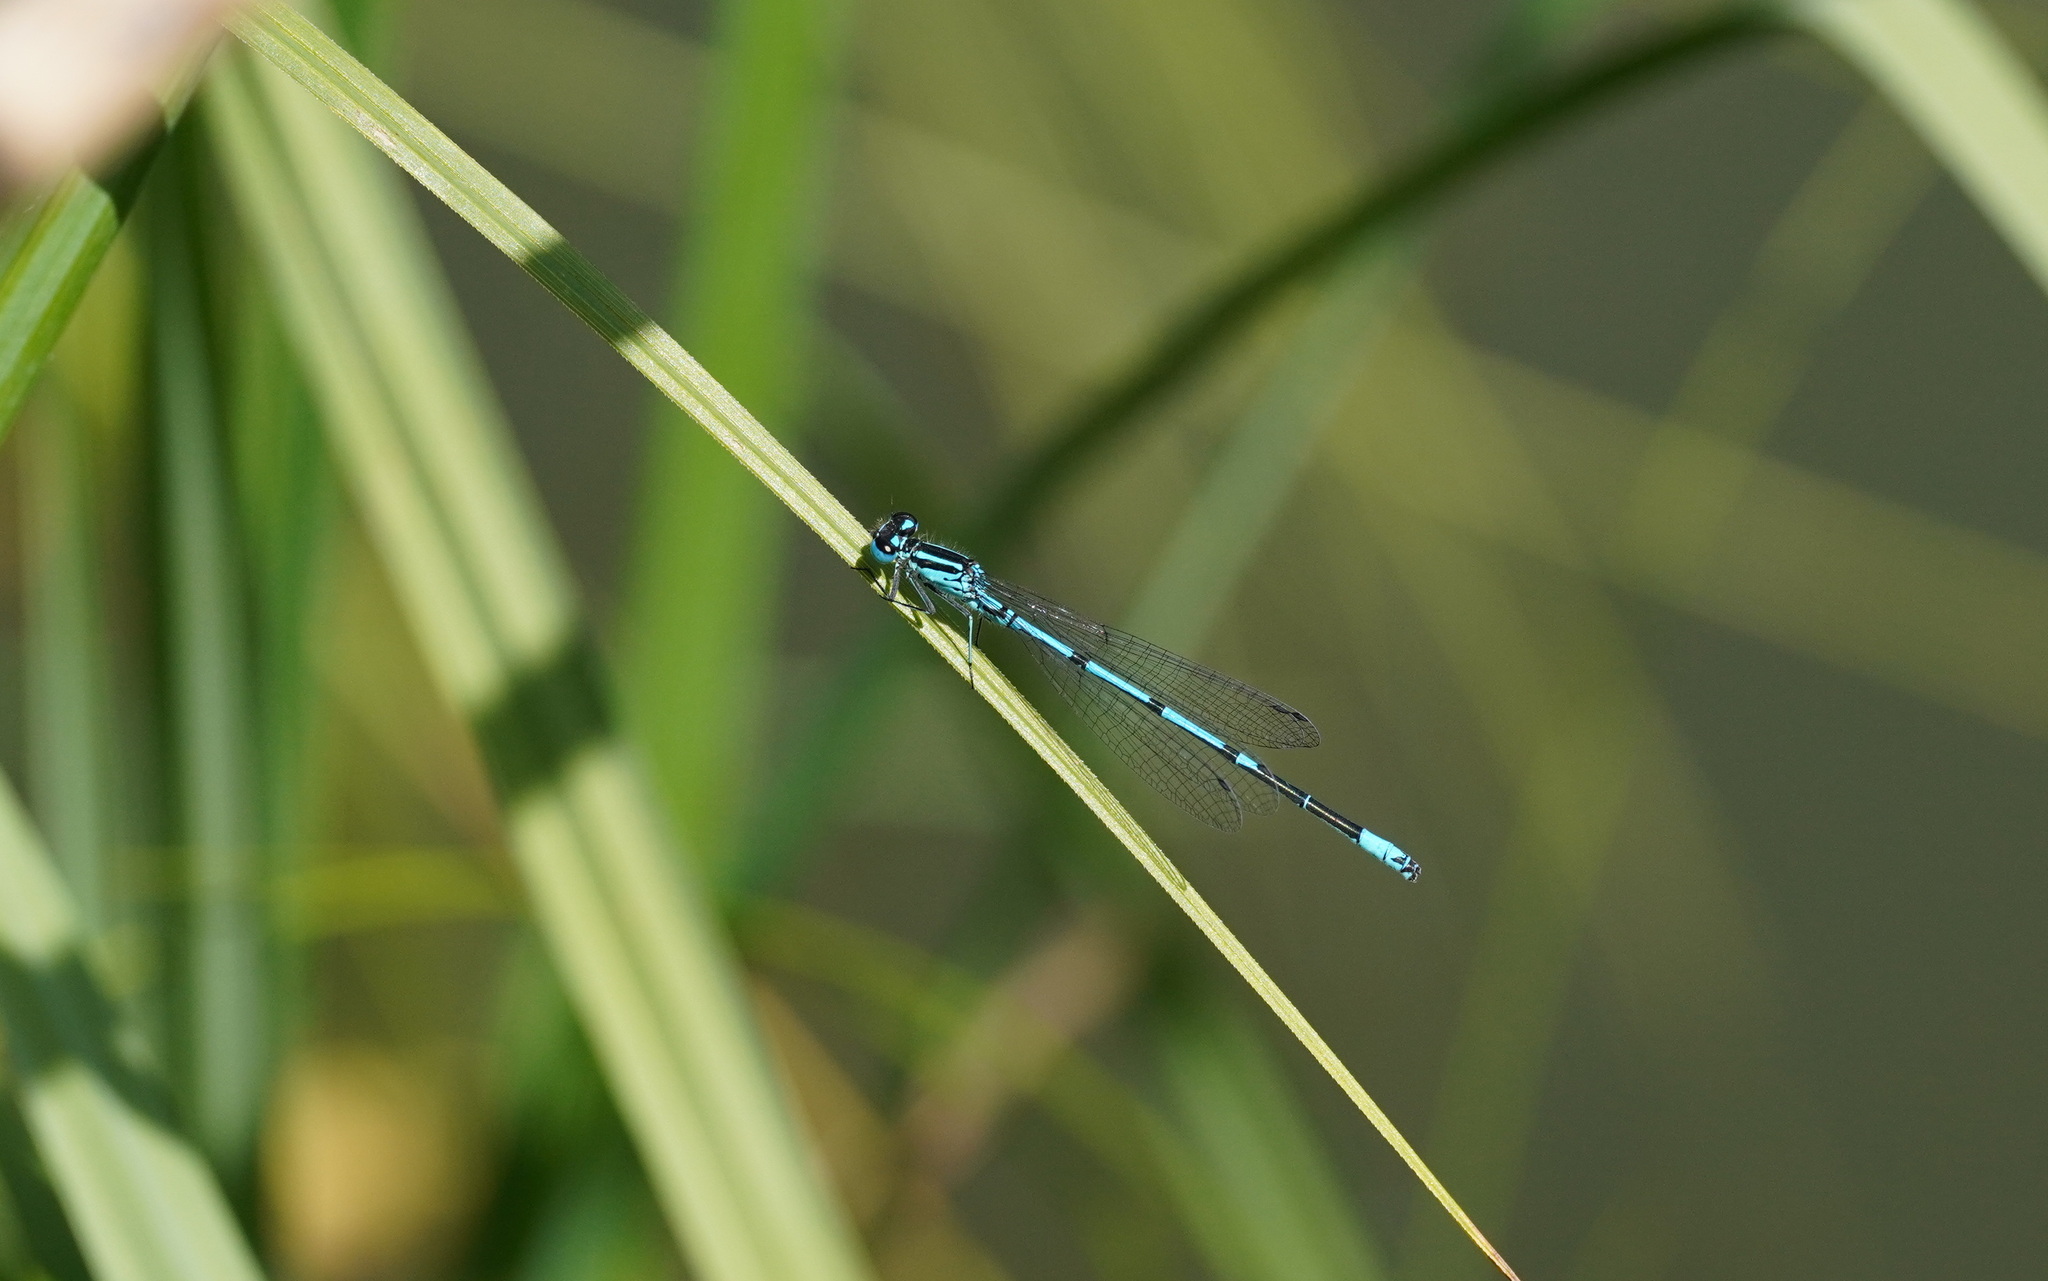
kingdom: Animalia
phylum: Arthropoda
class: Insecta
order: Odonata
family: Coenagrionidae
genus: Coenagrion
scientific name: Coenagrion puella
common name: Azure damselfly
